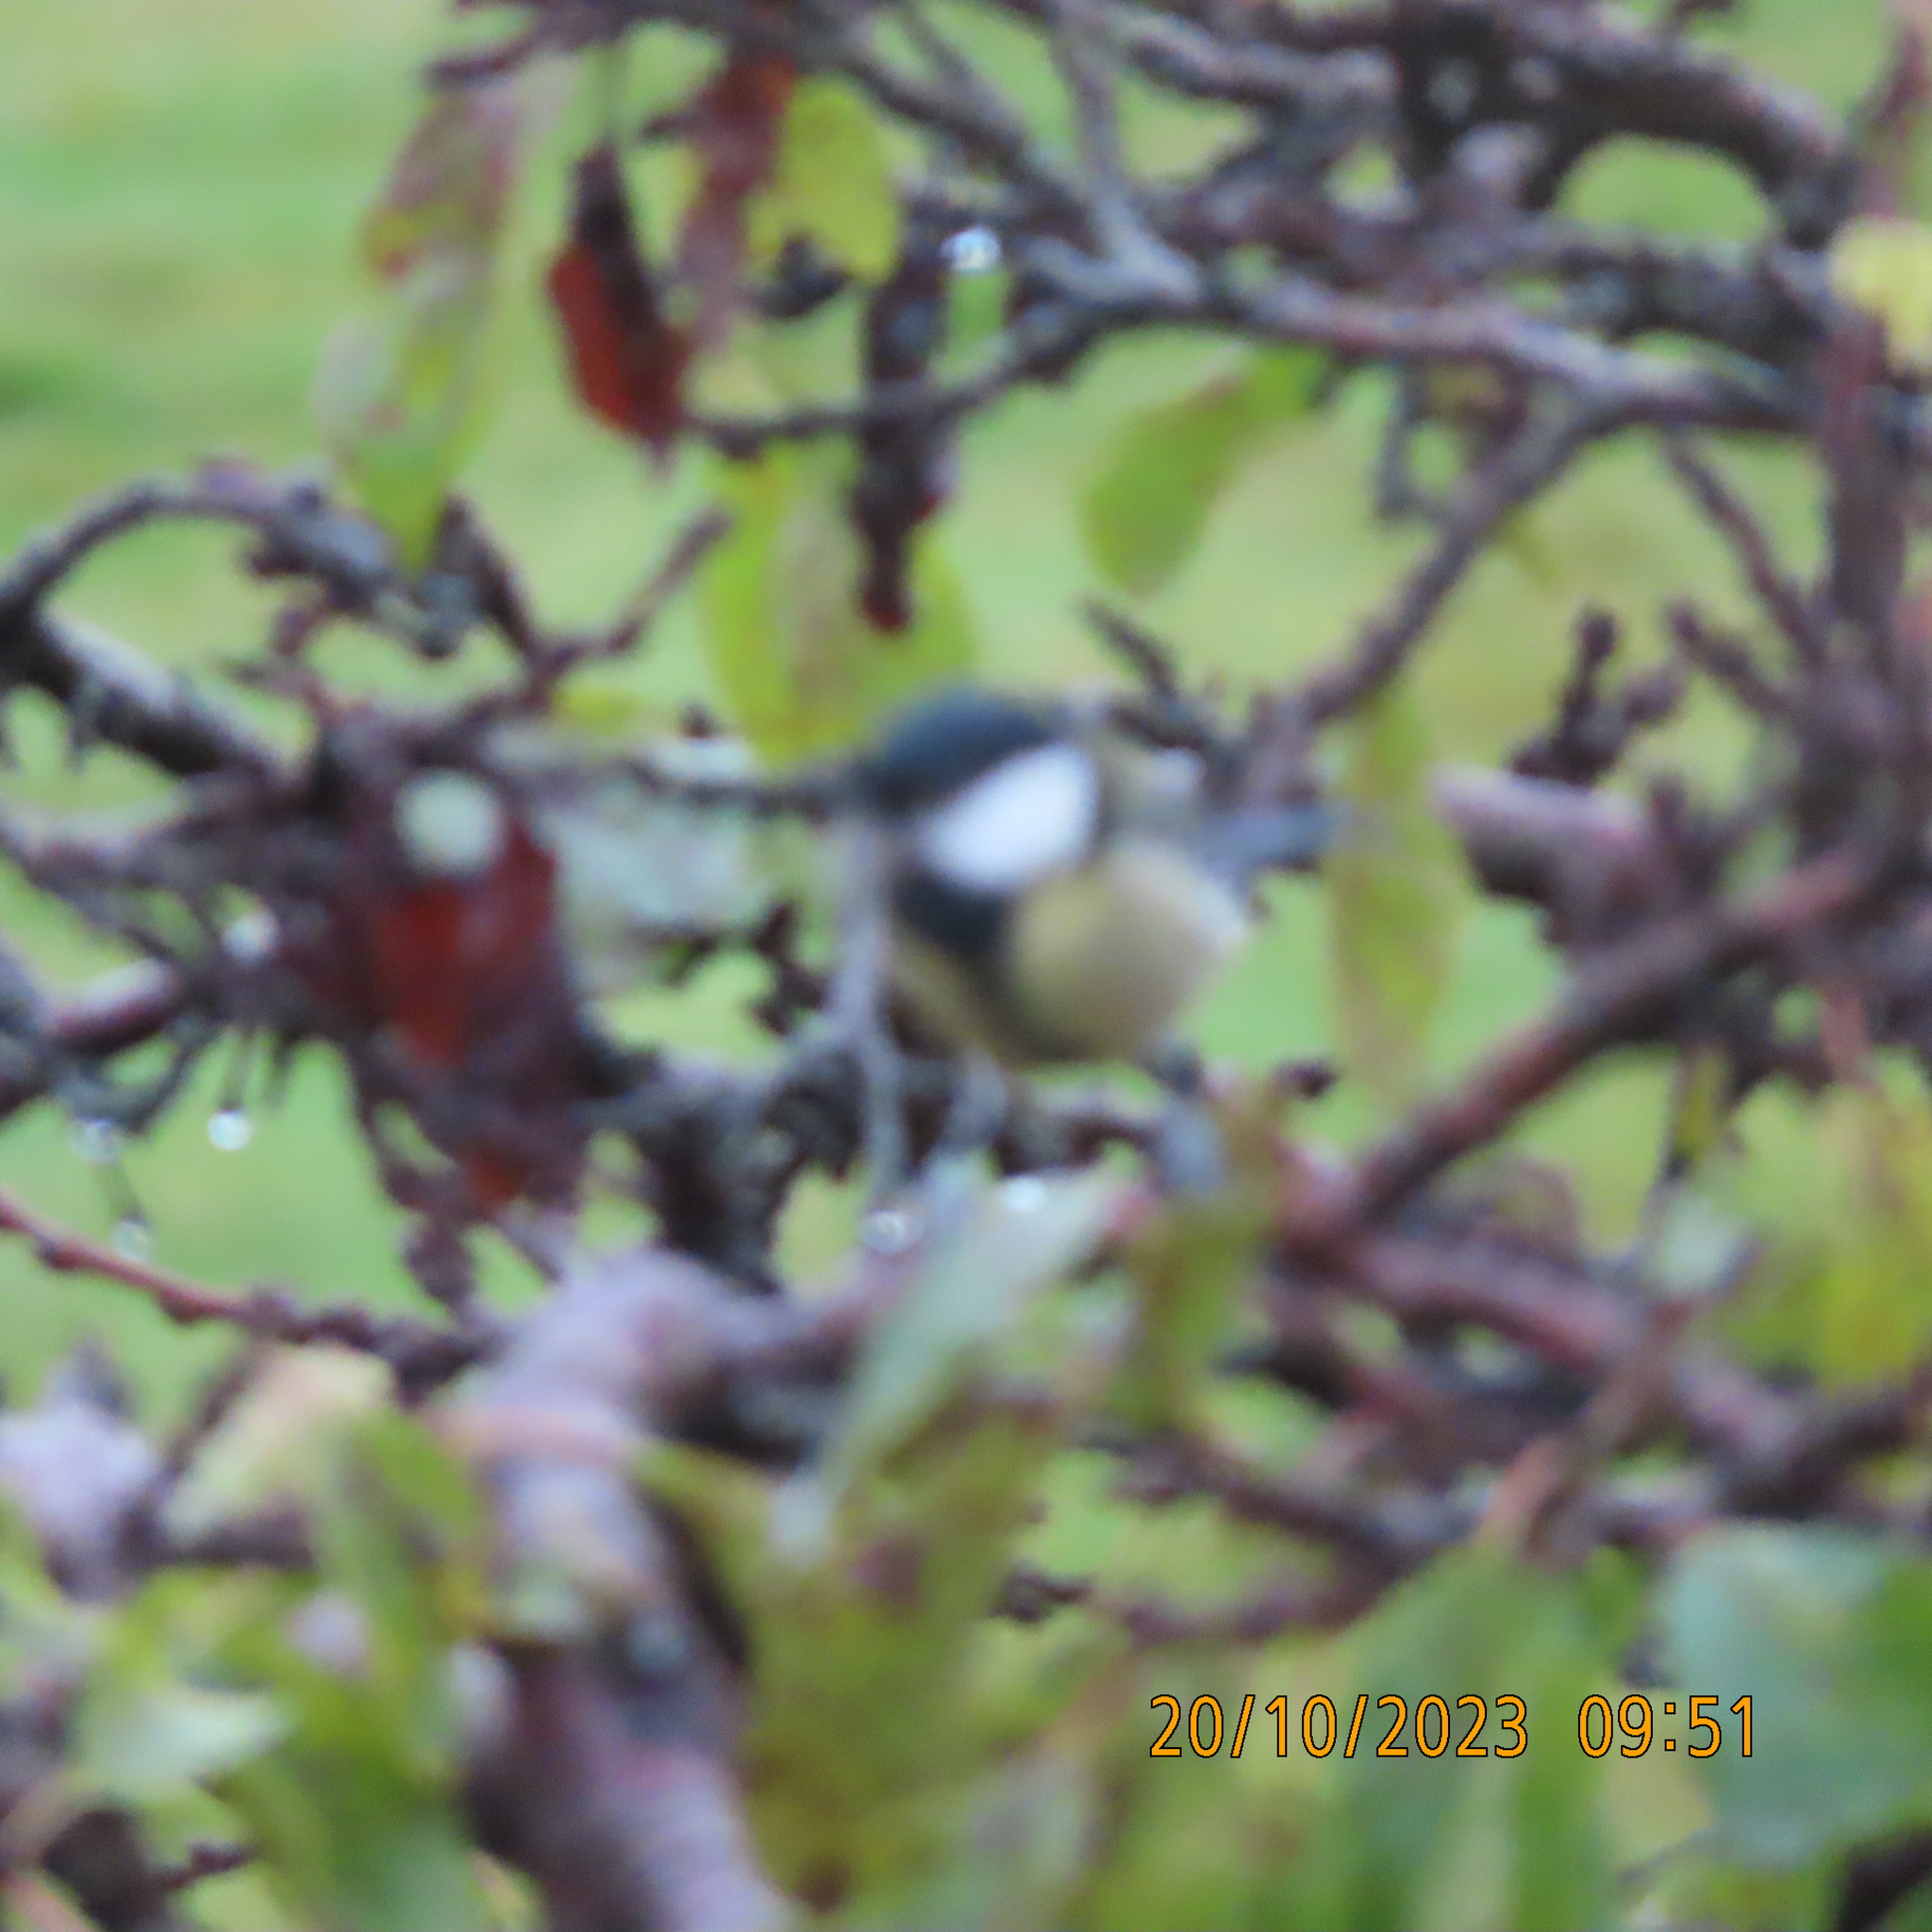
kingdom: Animalia
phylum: Chordata
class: Aves
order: Passeriformes
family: Paridae
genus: Parus
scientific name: Parus major
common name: Great tit
